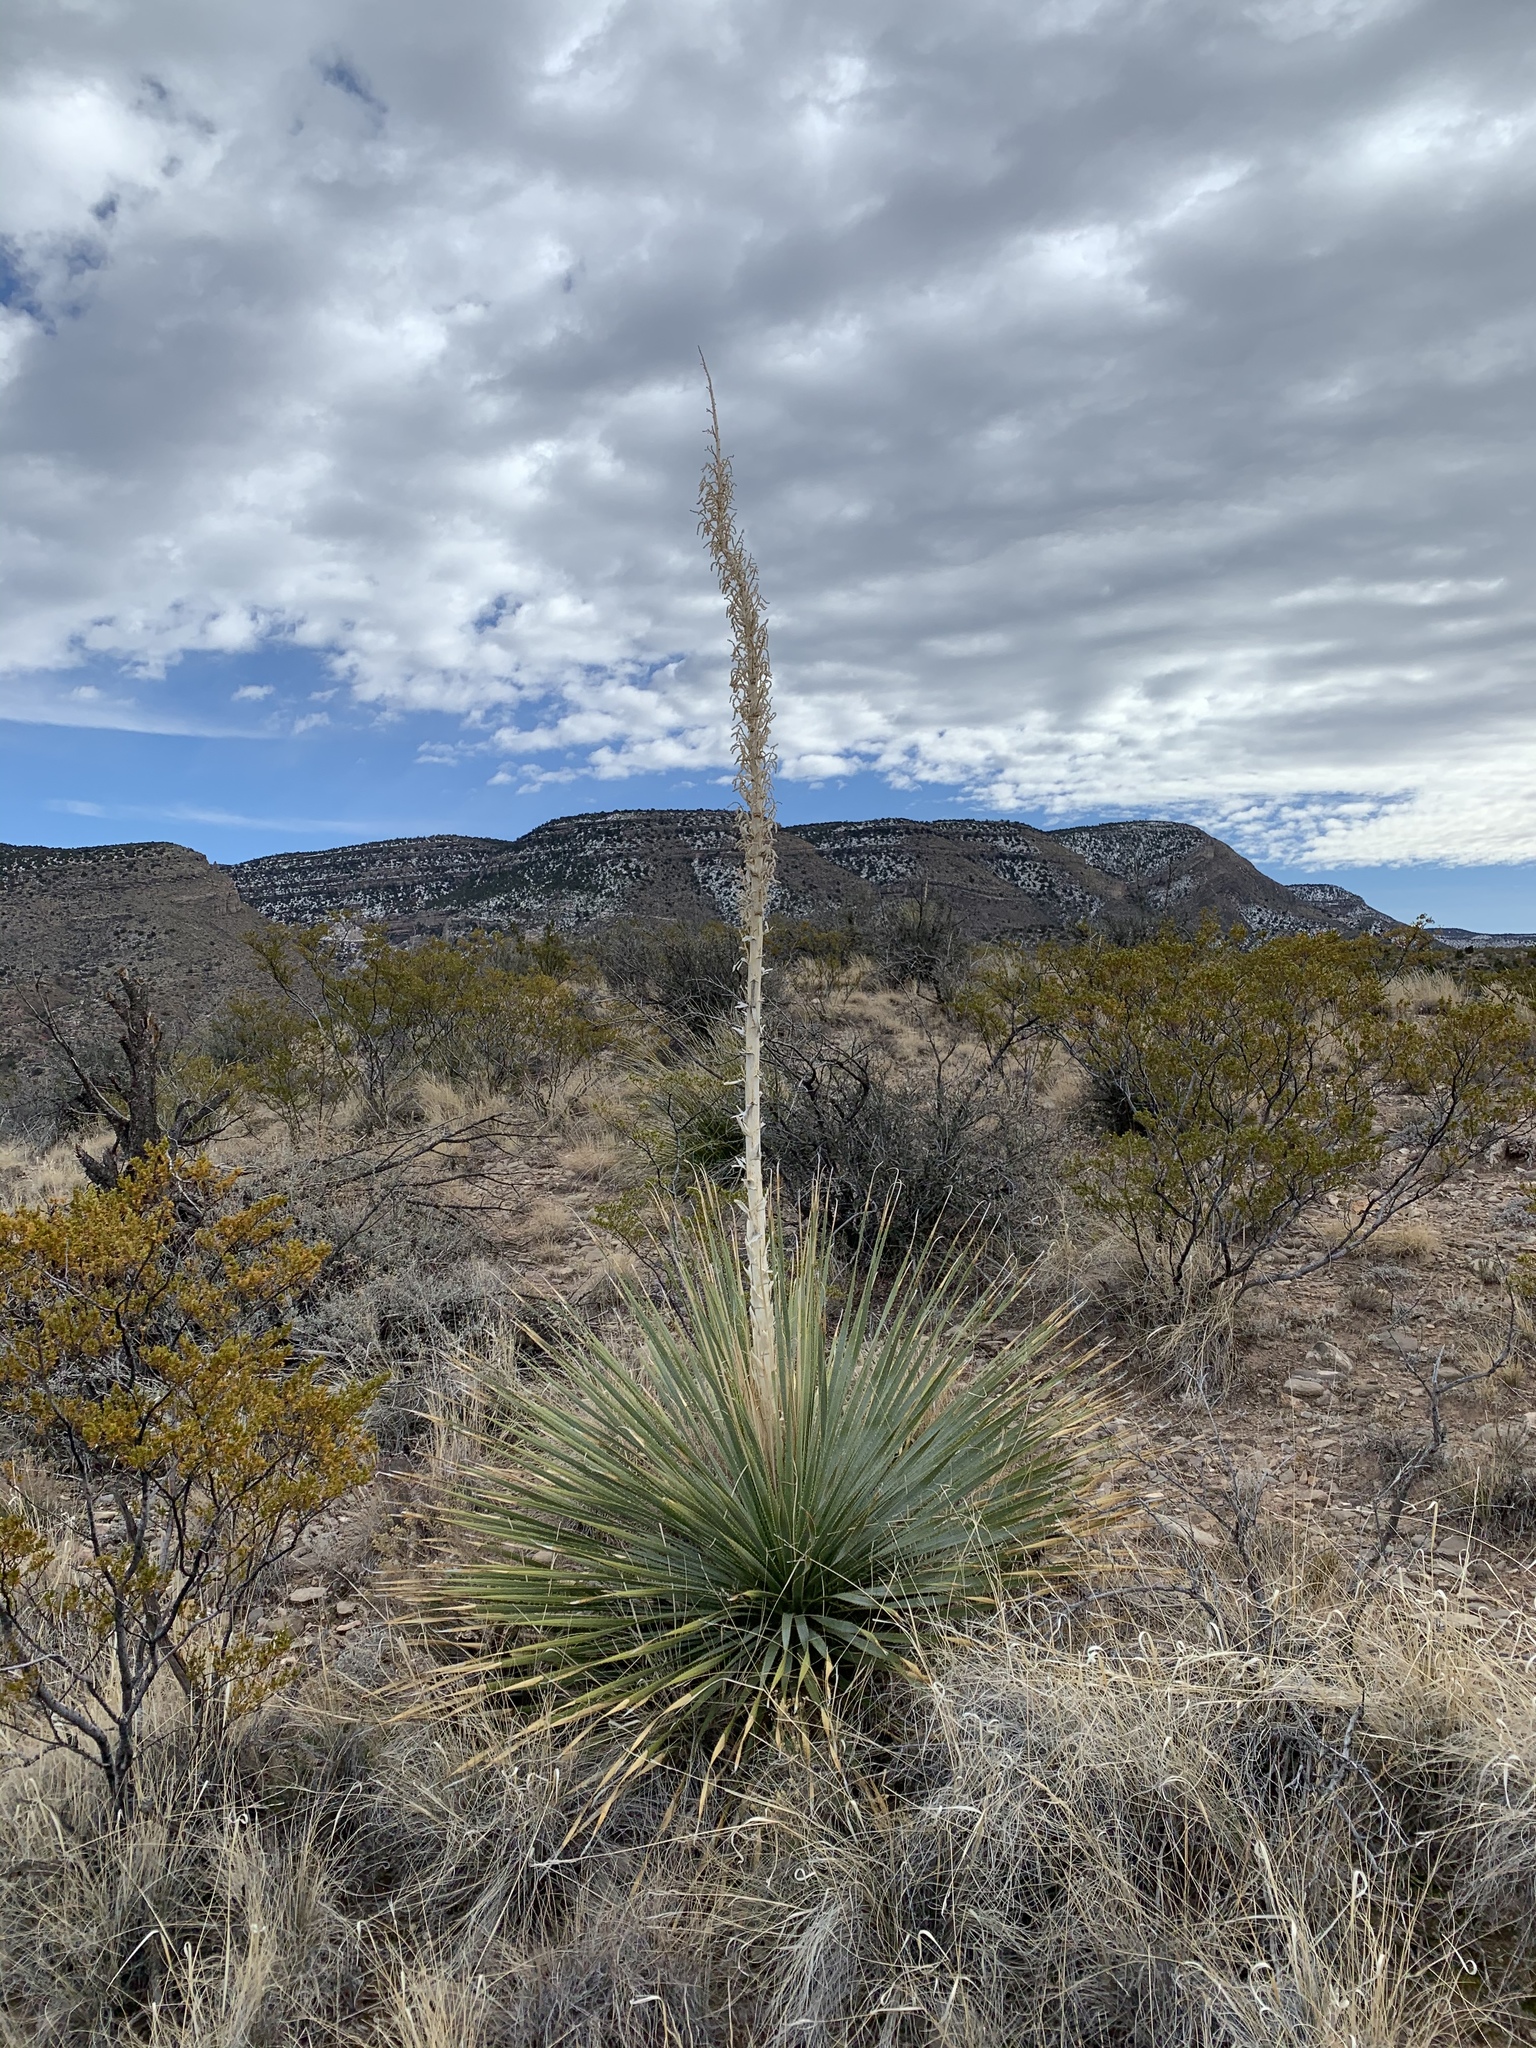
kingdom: Plantae
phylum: Tracheophyta
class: Liliopsida
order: Asparagales
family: Asparagaceae
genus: Dasylirion
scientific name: Dasylirion wheeleri
